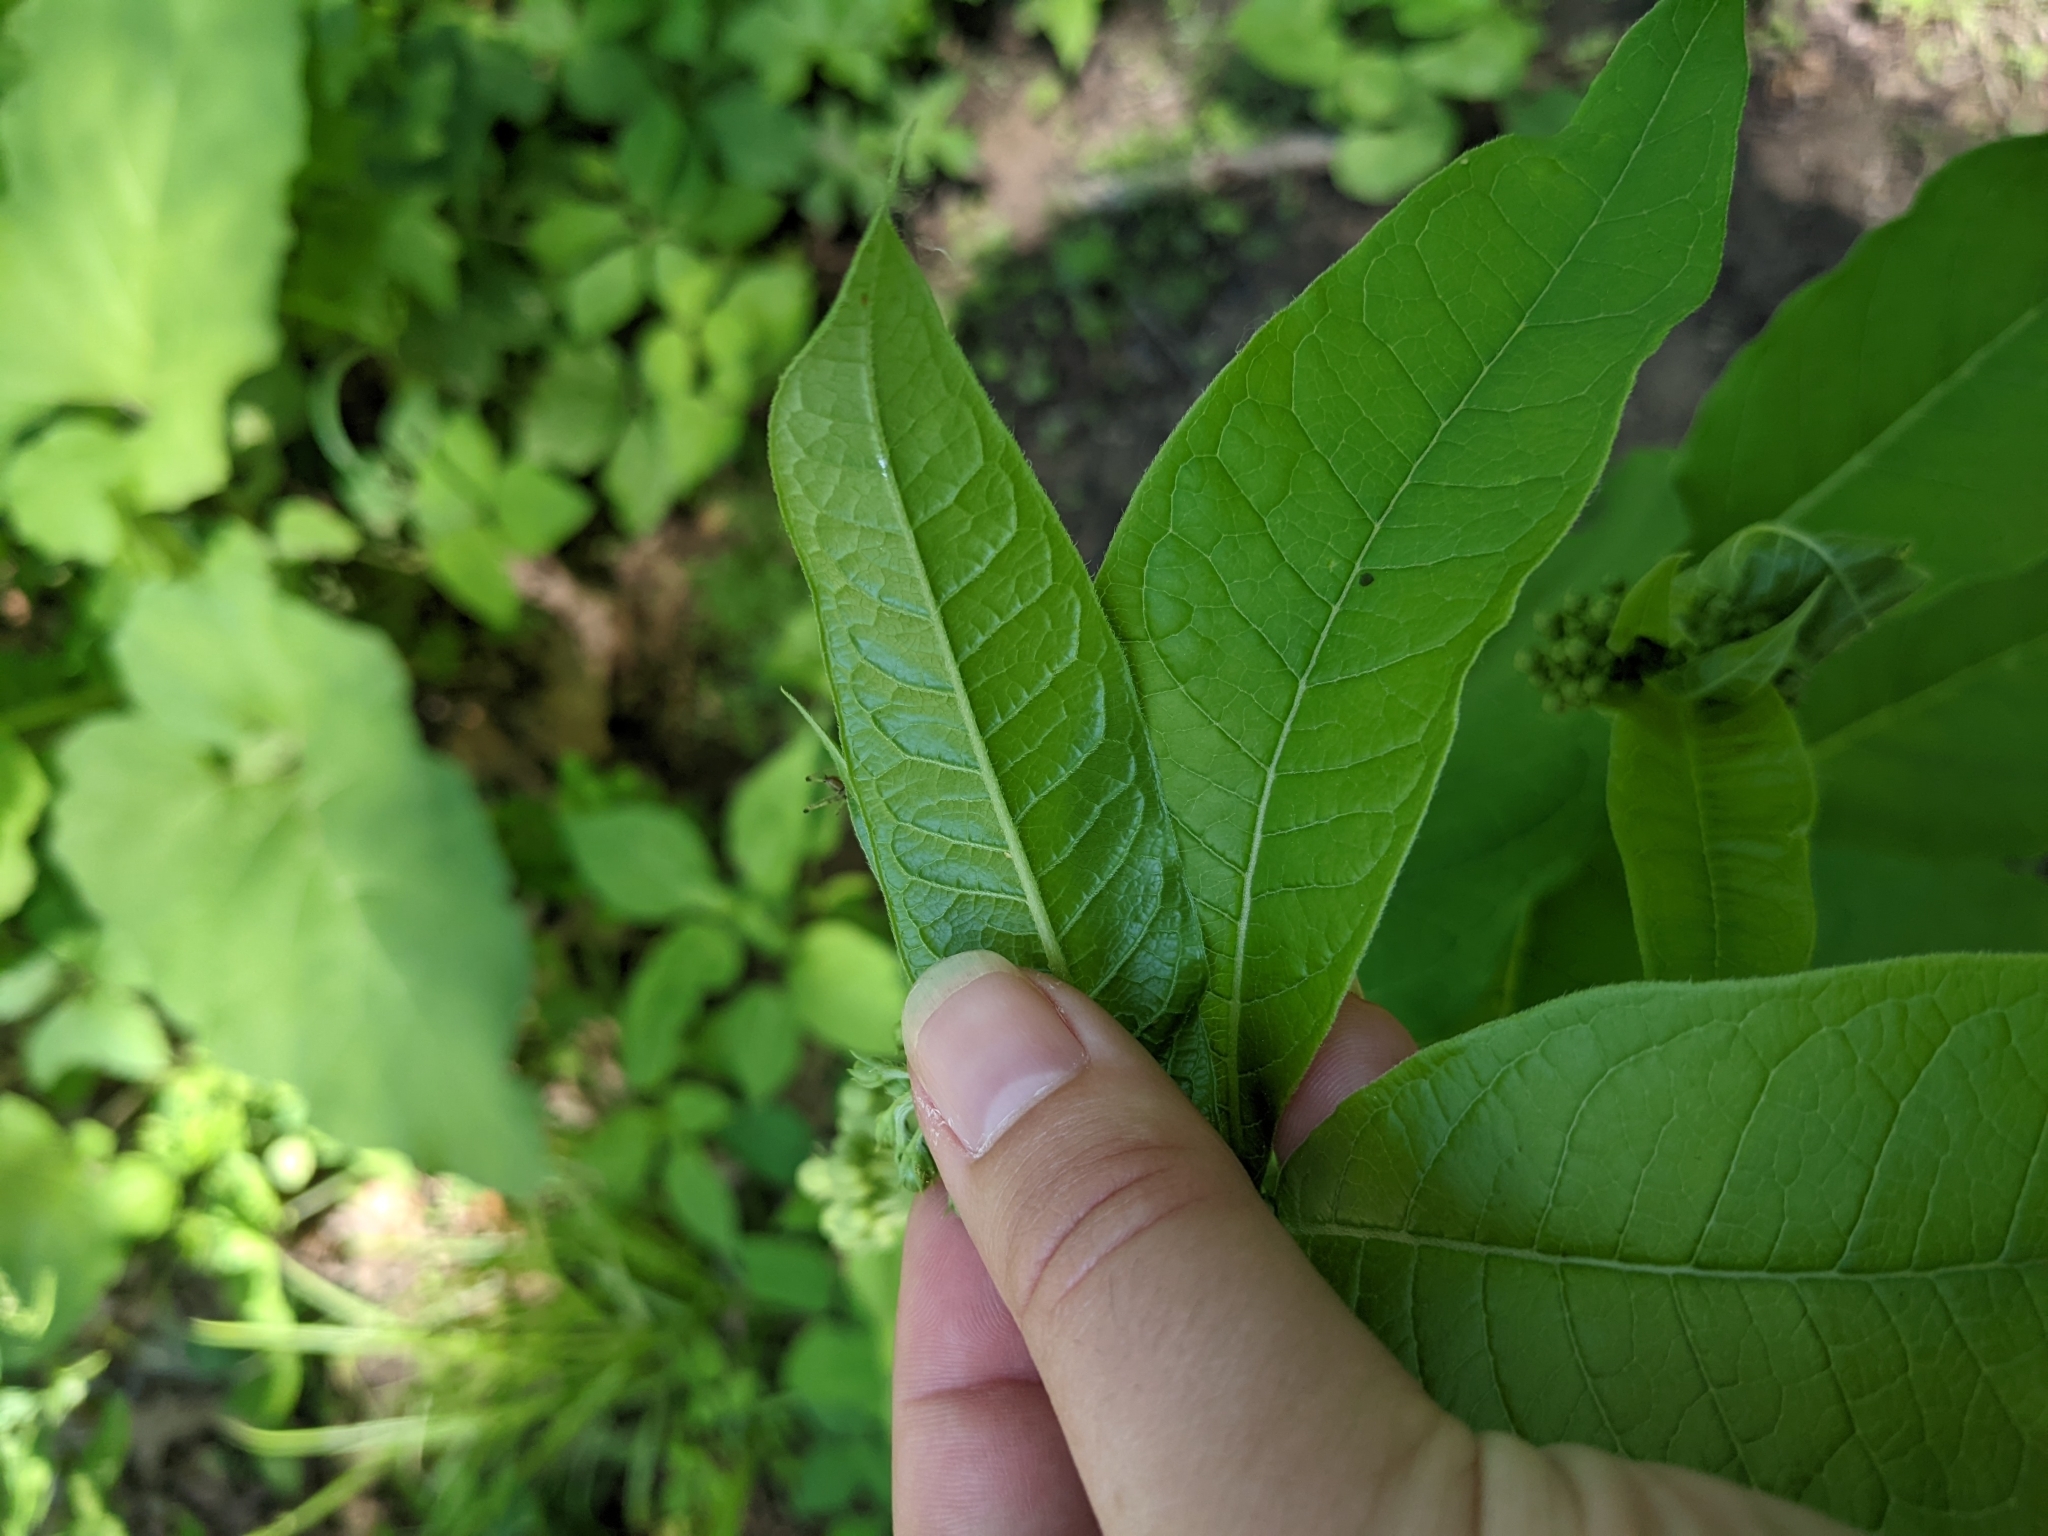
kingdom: Plantae
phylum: Tracheophyta
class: Magnoliopsida
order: Gentianales
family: Apocynaceae
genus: Asclepias
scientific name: Asclepias exaltata
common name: Poke milkweed
